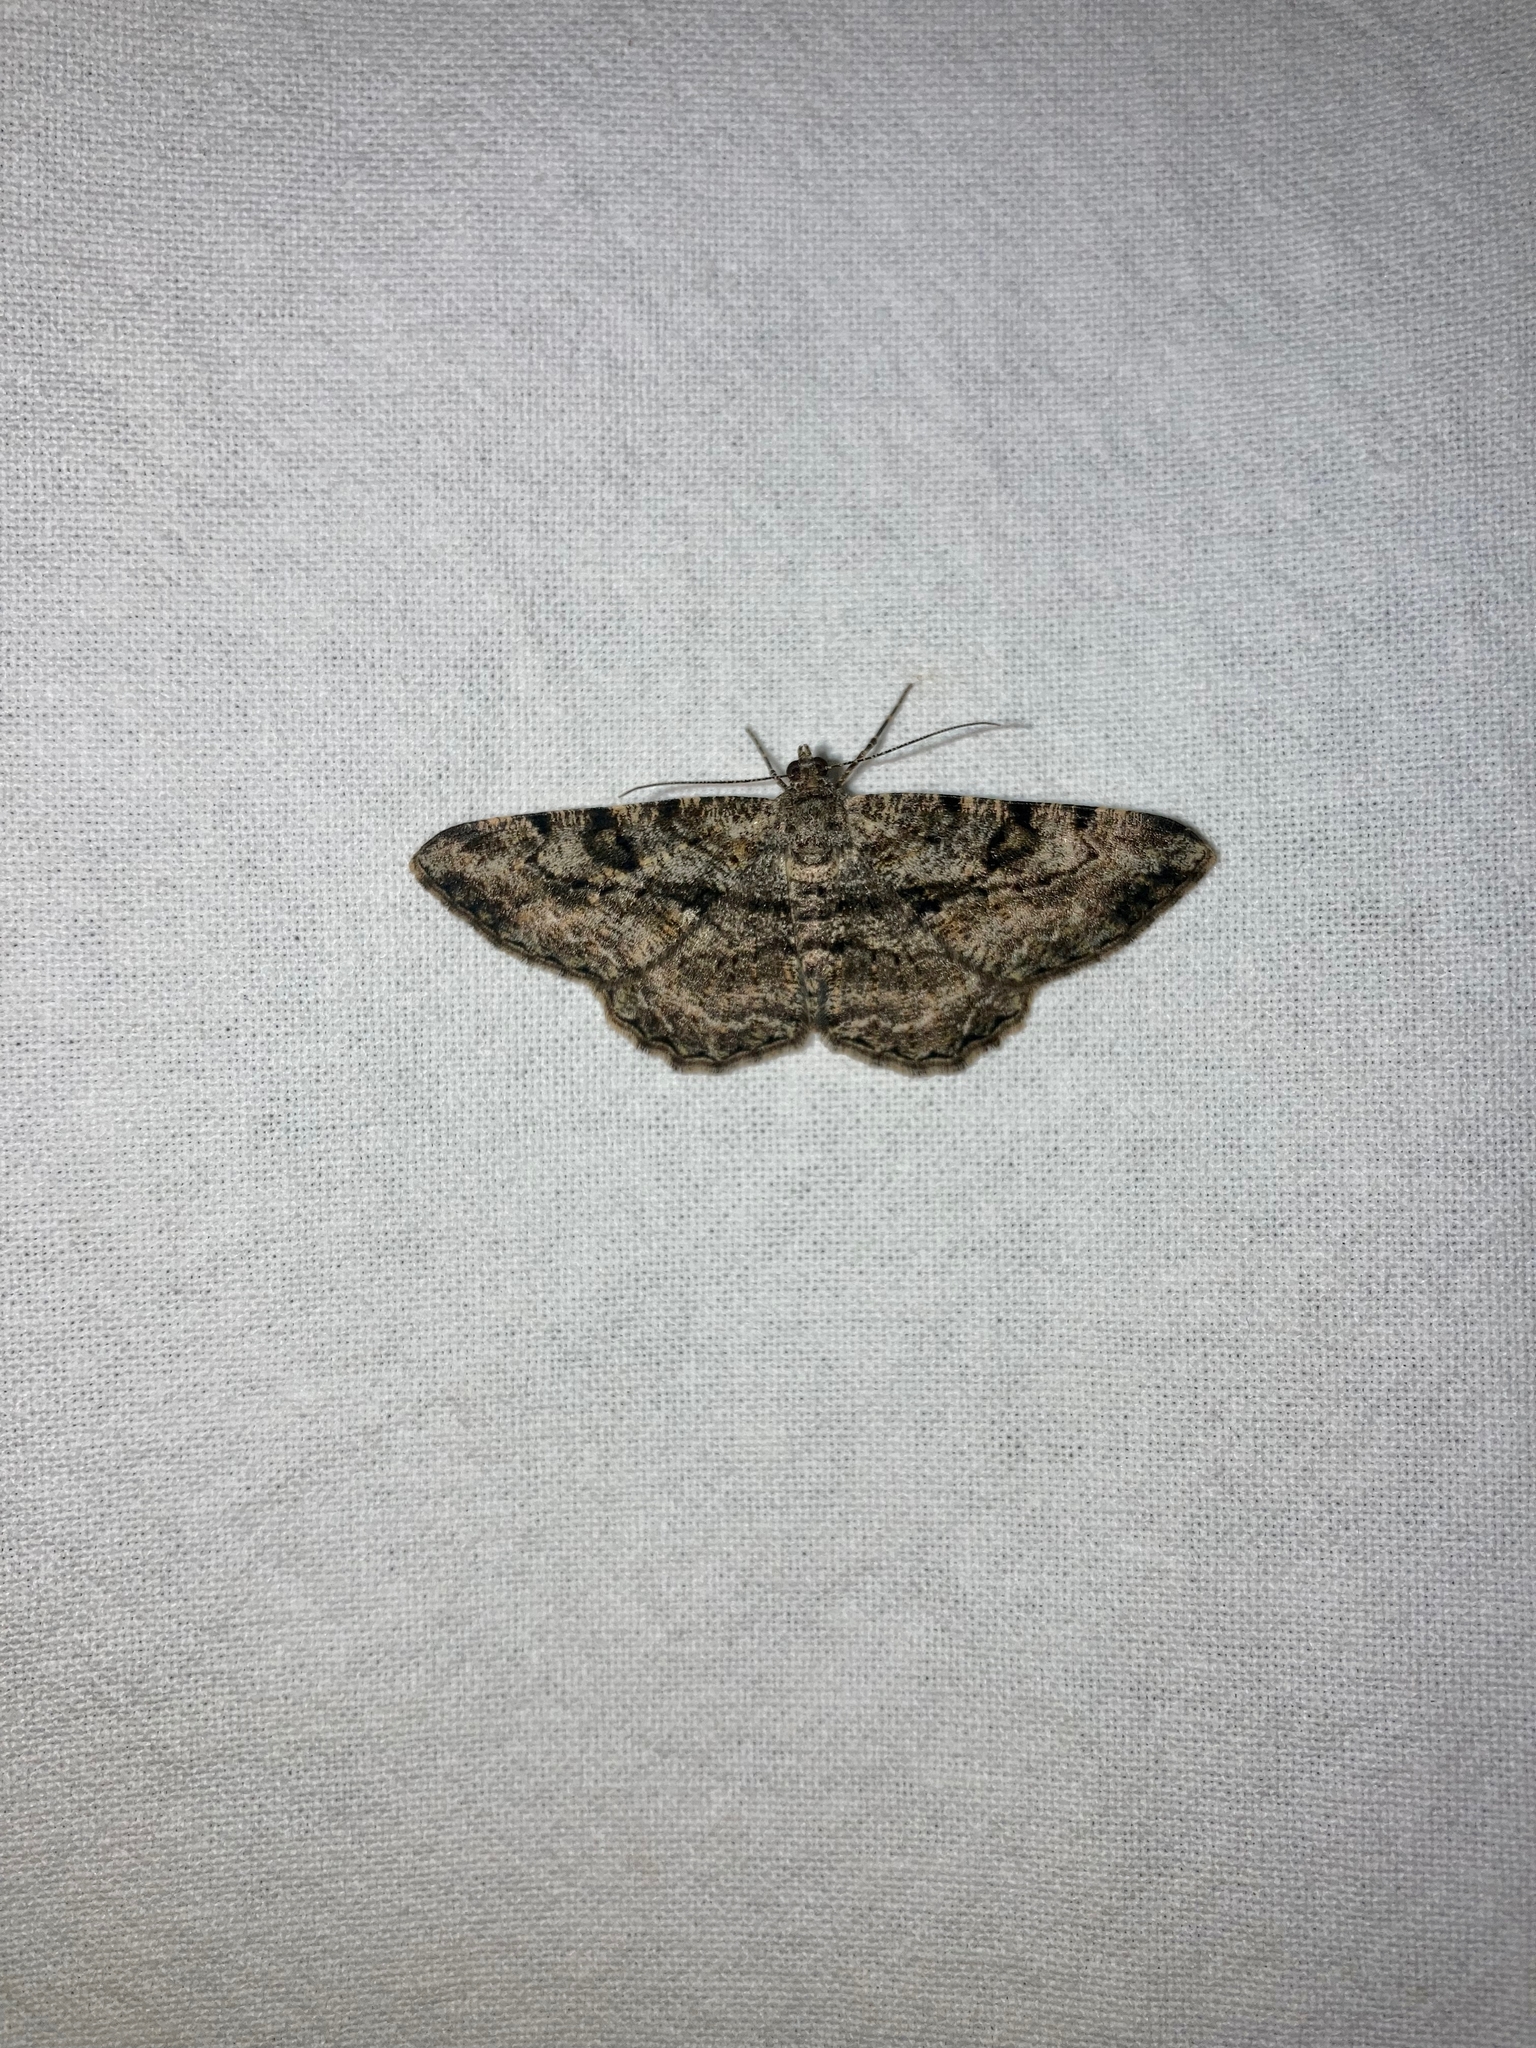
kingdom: Animalia
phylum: Arthropoda
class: Insecta
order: Lepidoptera
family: Geometridae
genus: Peribatodes
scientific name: Peribatodes rhomboidaria
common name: Willow beauty
